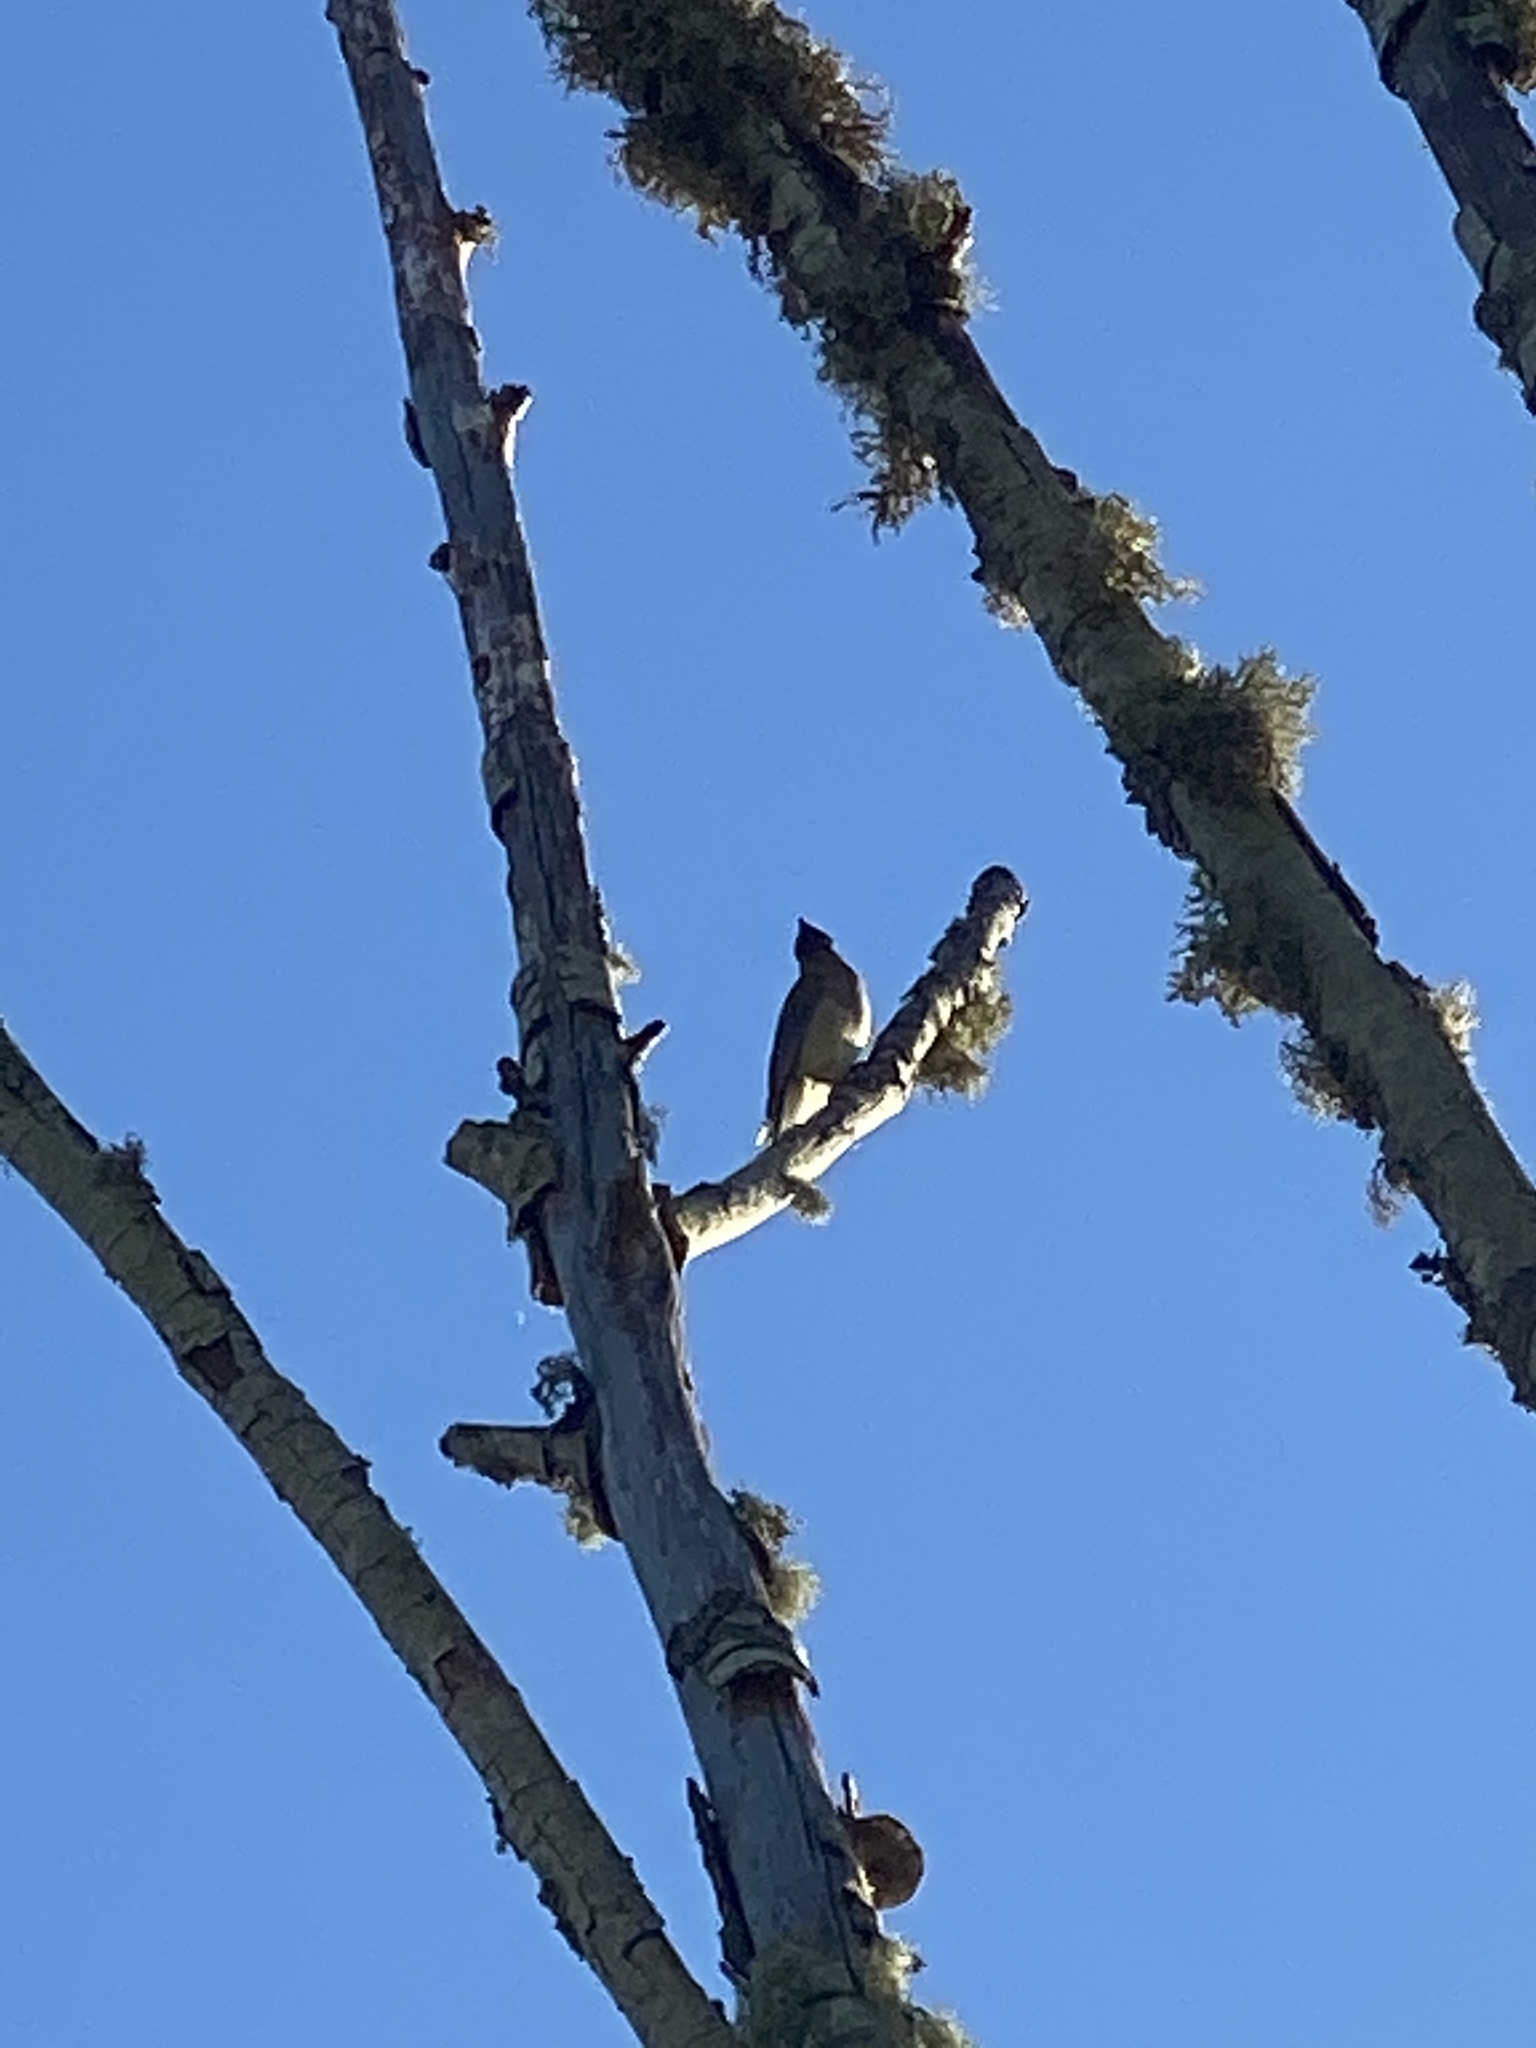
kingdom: Animalia
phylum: Chordata
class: Aves
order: Passeriformes
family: Bombycillidae
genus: Bombycilla
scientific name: Bombycilla cedrorum
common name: Cedar waxwing
